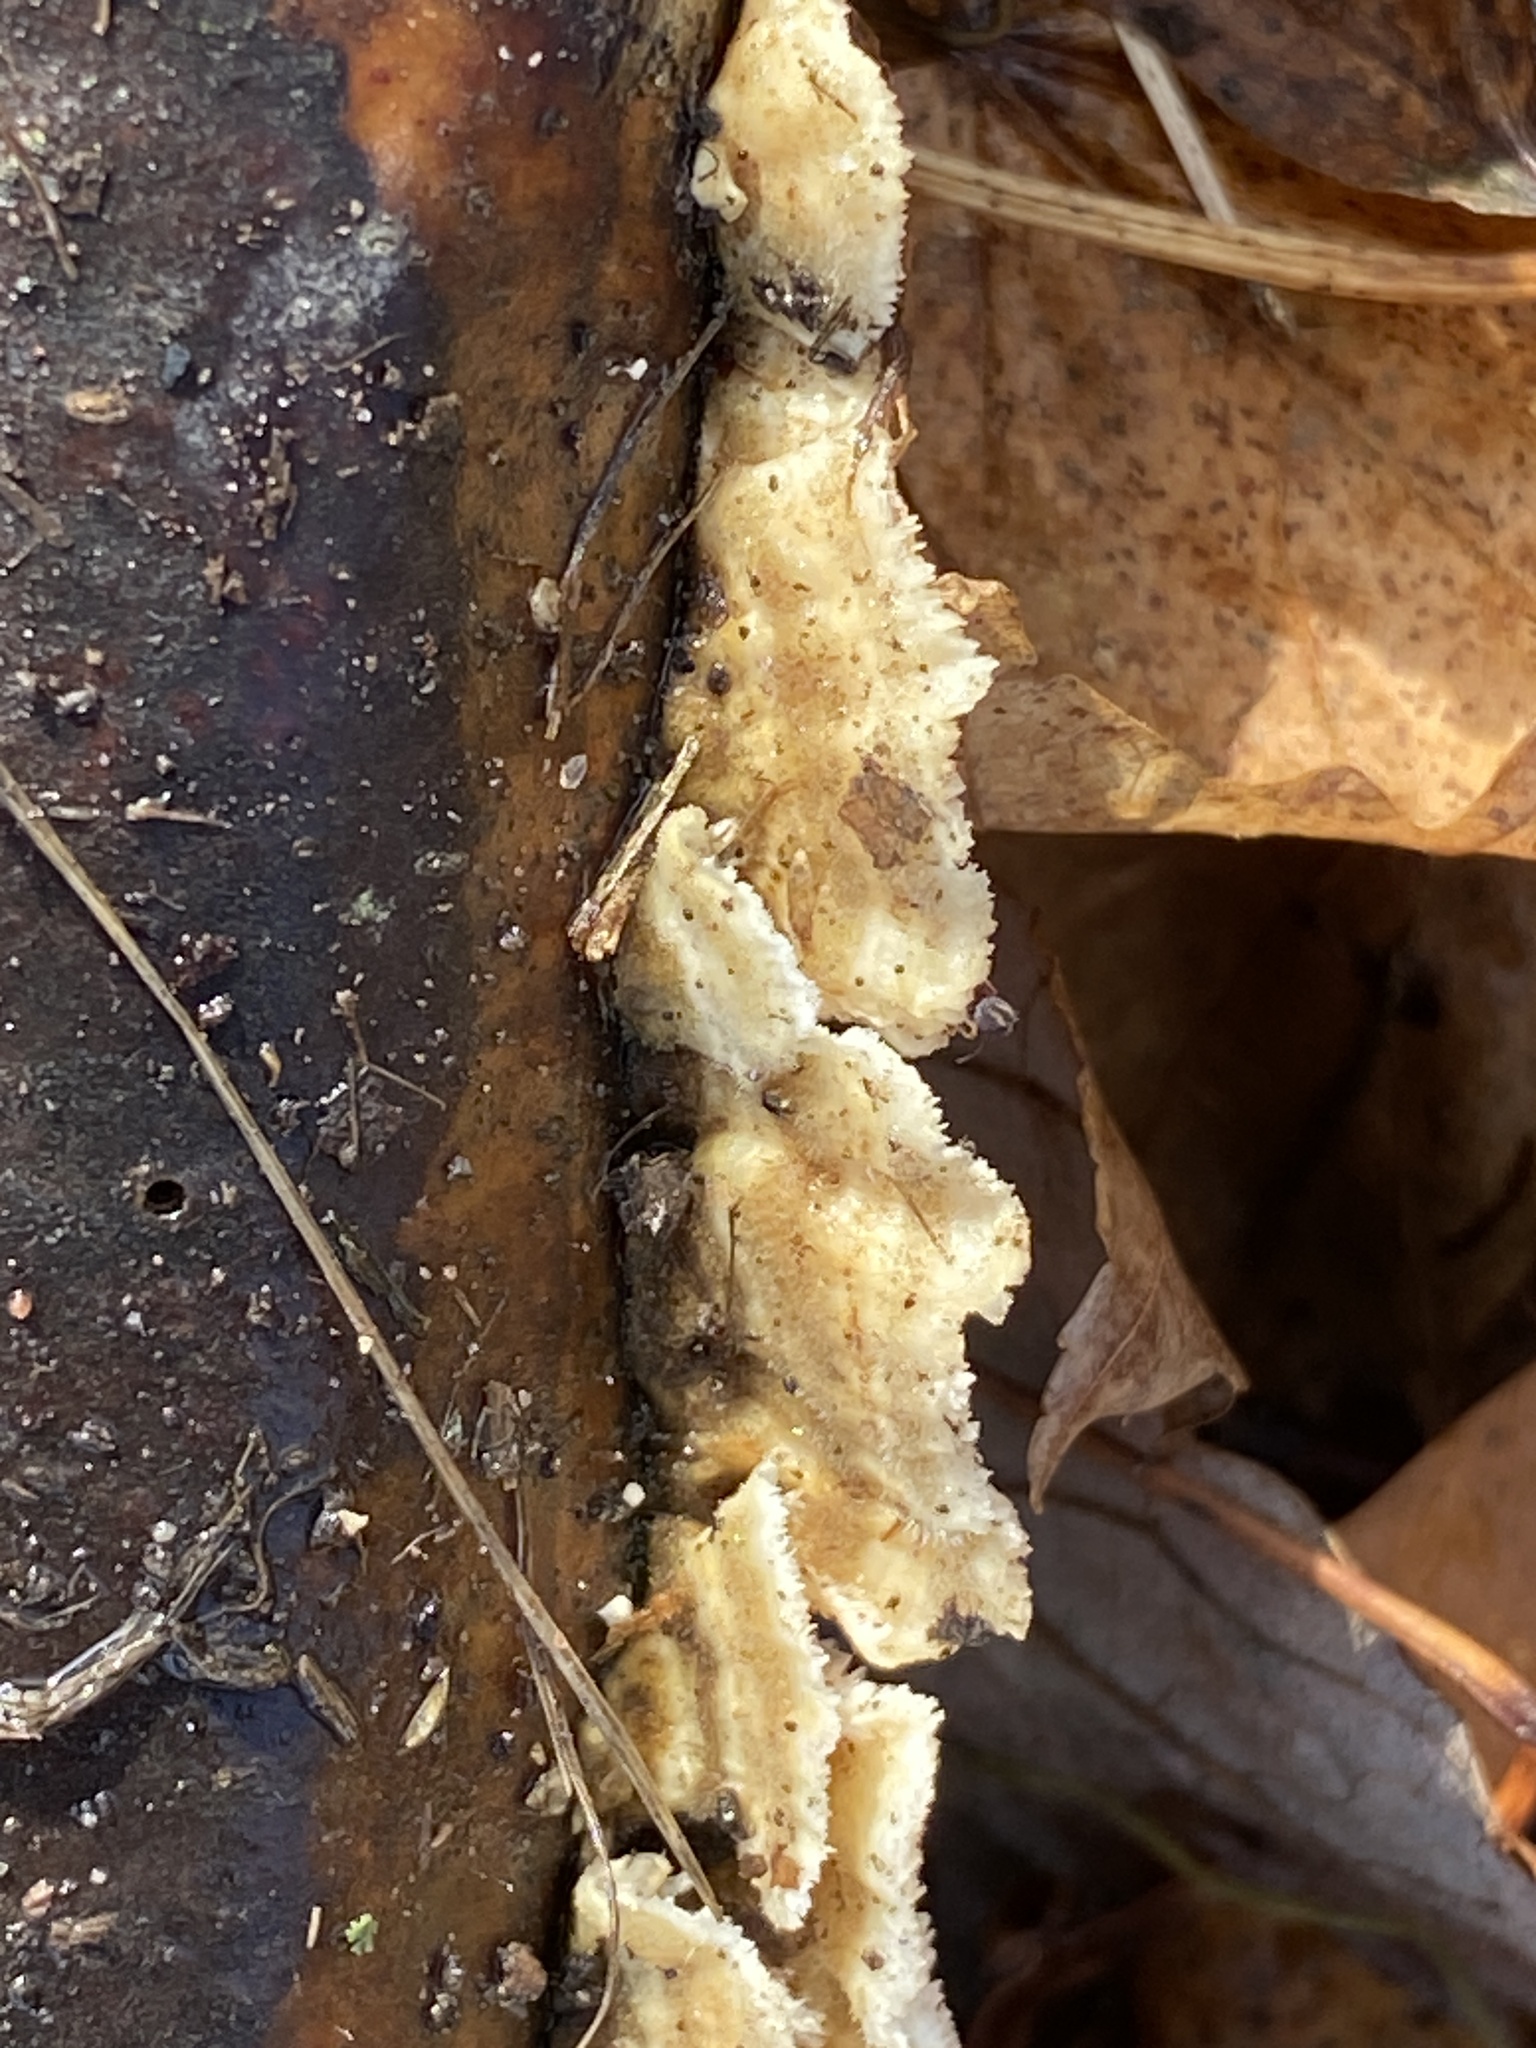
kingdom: Fungi
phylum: Basidiomycota
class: Agaricomycetes
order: Polyporales
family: Irpicaceae
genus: Trametopsis
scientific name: Trametopsis cervina
